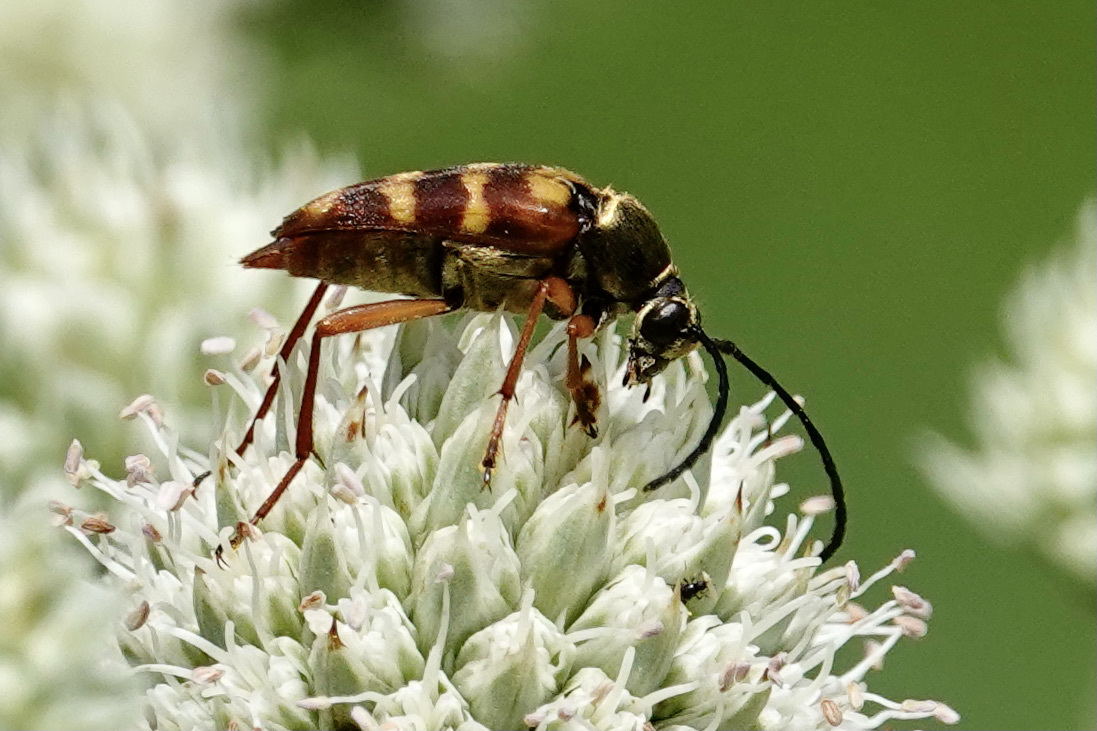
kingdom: Animalia
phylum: Arthropoda
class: Insecta
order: Coleoptera
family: Cerambycidae
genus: Typocerus
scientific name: Typocerus velutinus
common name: Banded longhorn beetle
